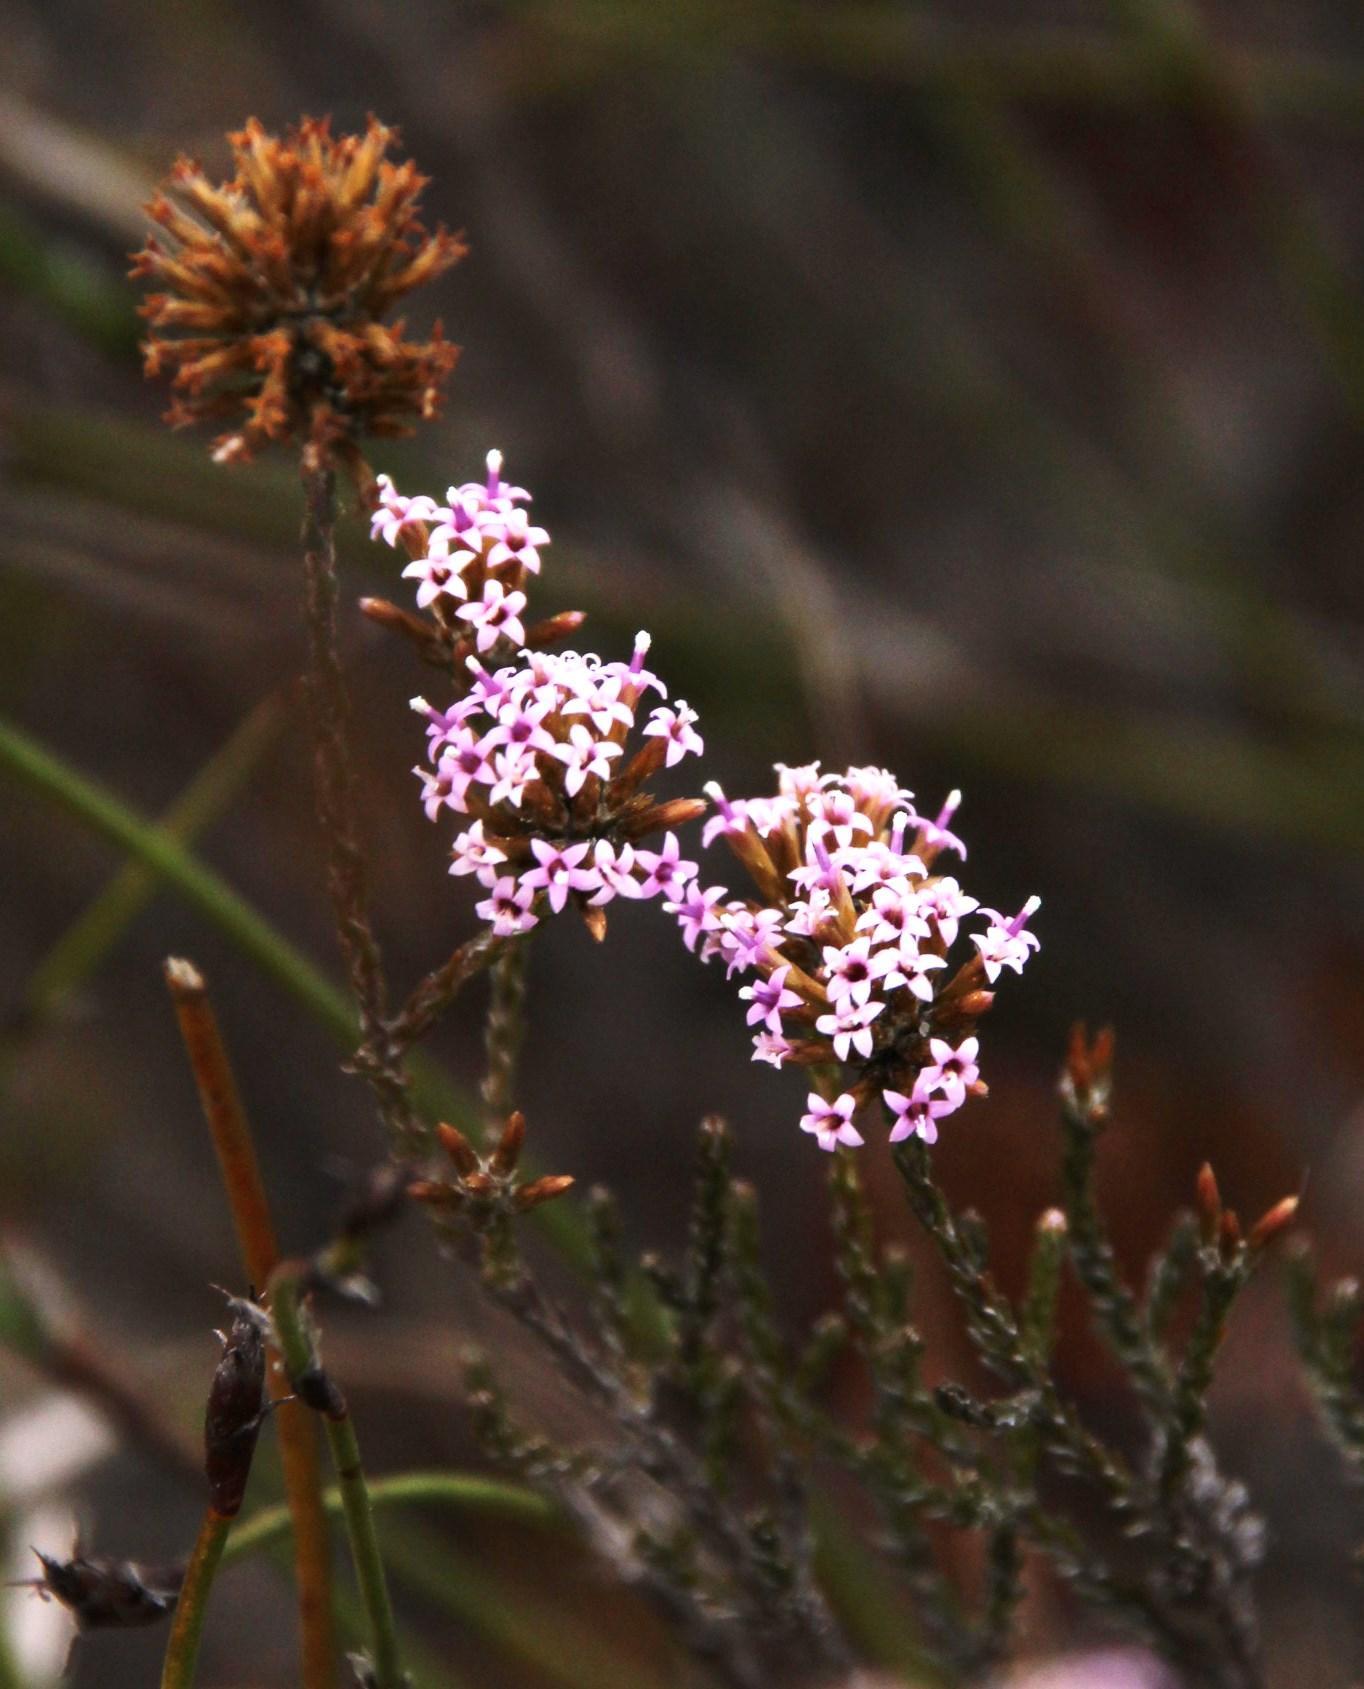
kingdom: Plantae
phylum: Tracheophyta
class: Magnoliopsida
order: Asterales
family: Asteraceae
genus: Stoebe
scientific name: Stoebe capitata
